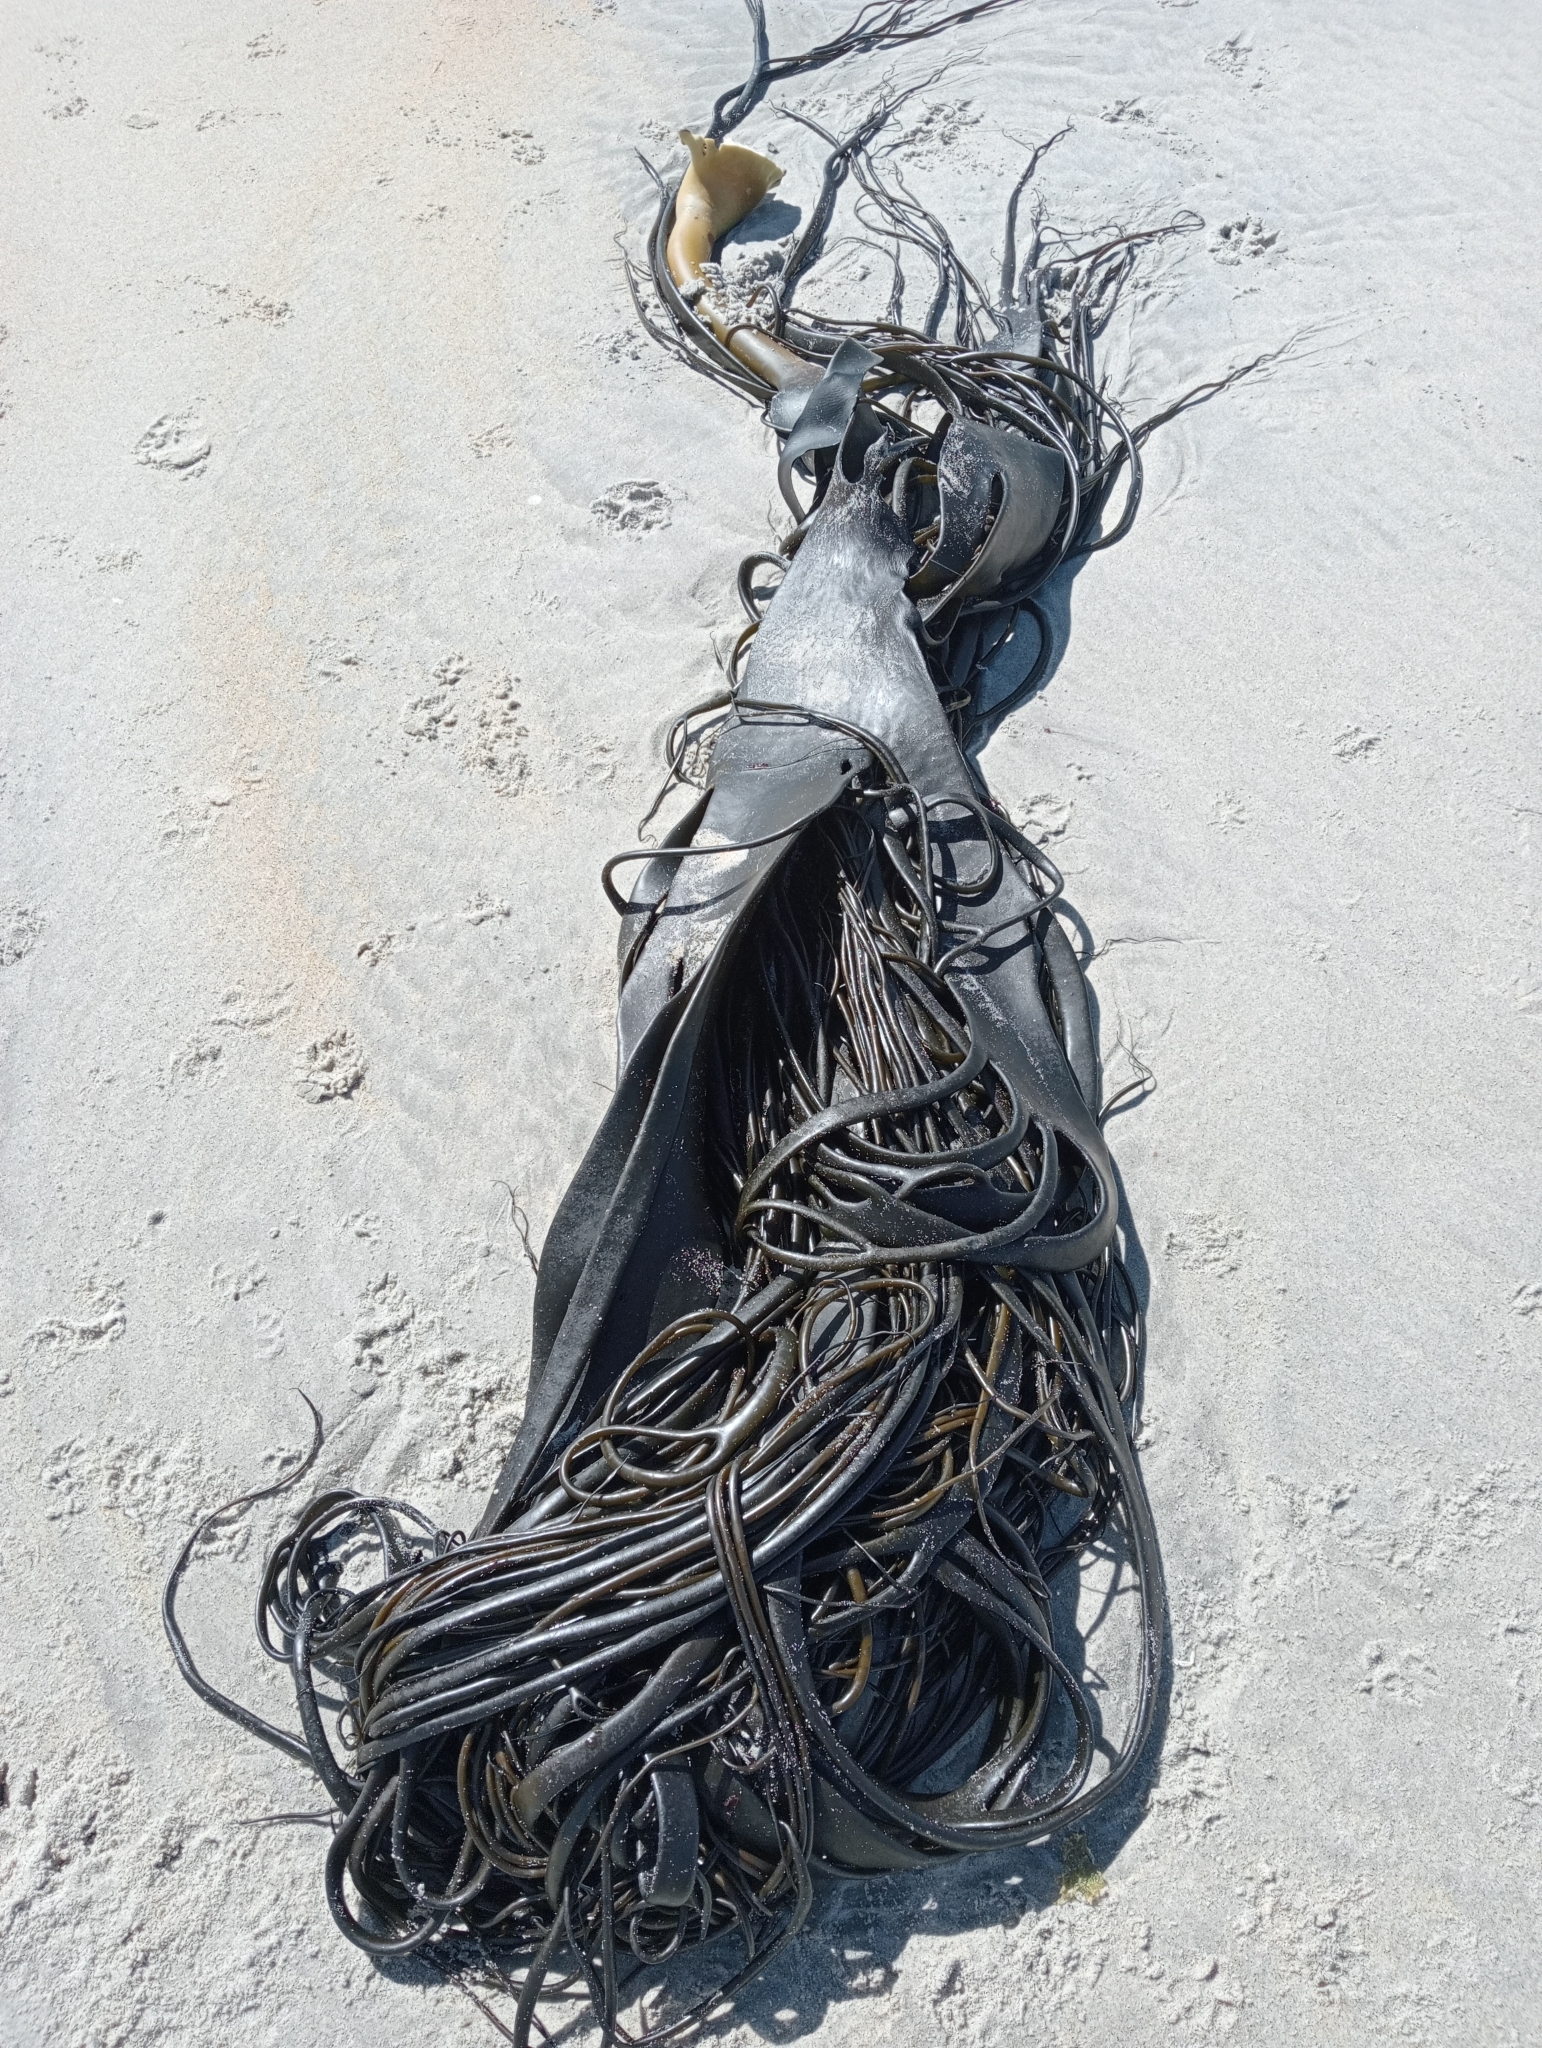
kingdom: Chromista
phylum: Ochrophyta
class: Phaeophyceae
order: Fucales
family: Durvillaeaceae
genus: Durvillaea
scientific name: Durvillaea antarctica
